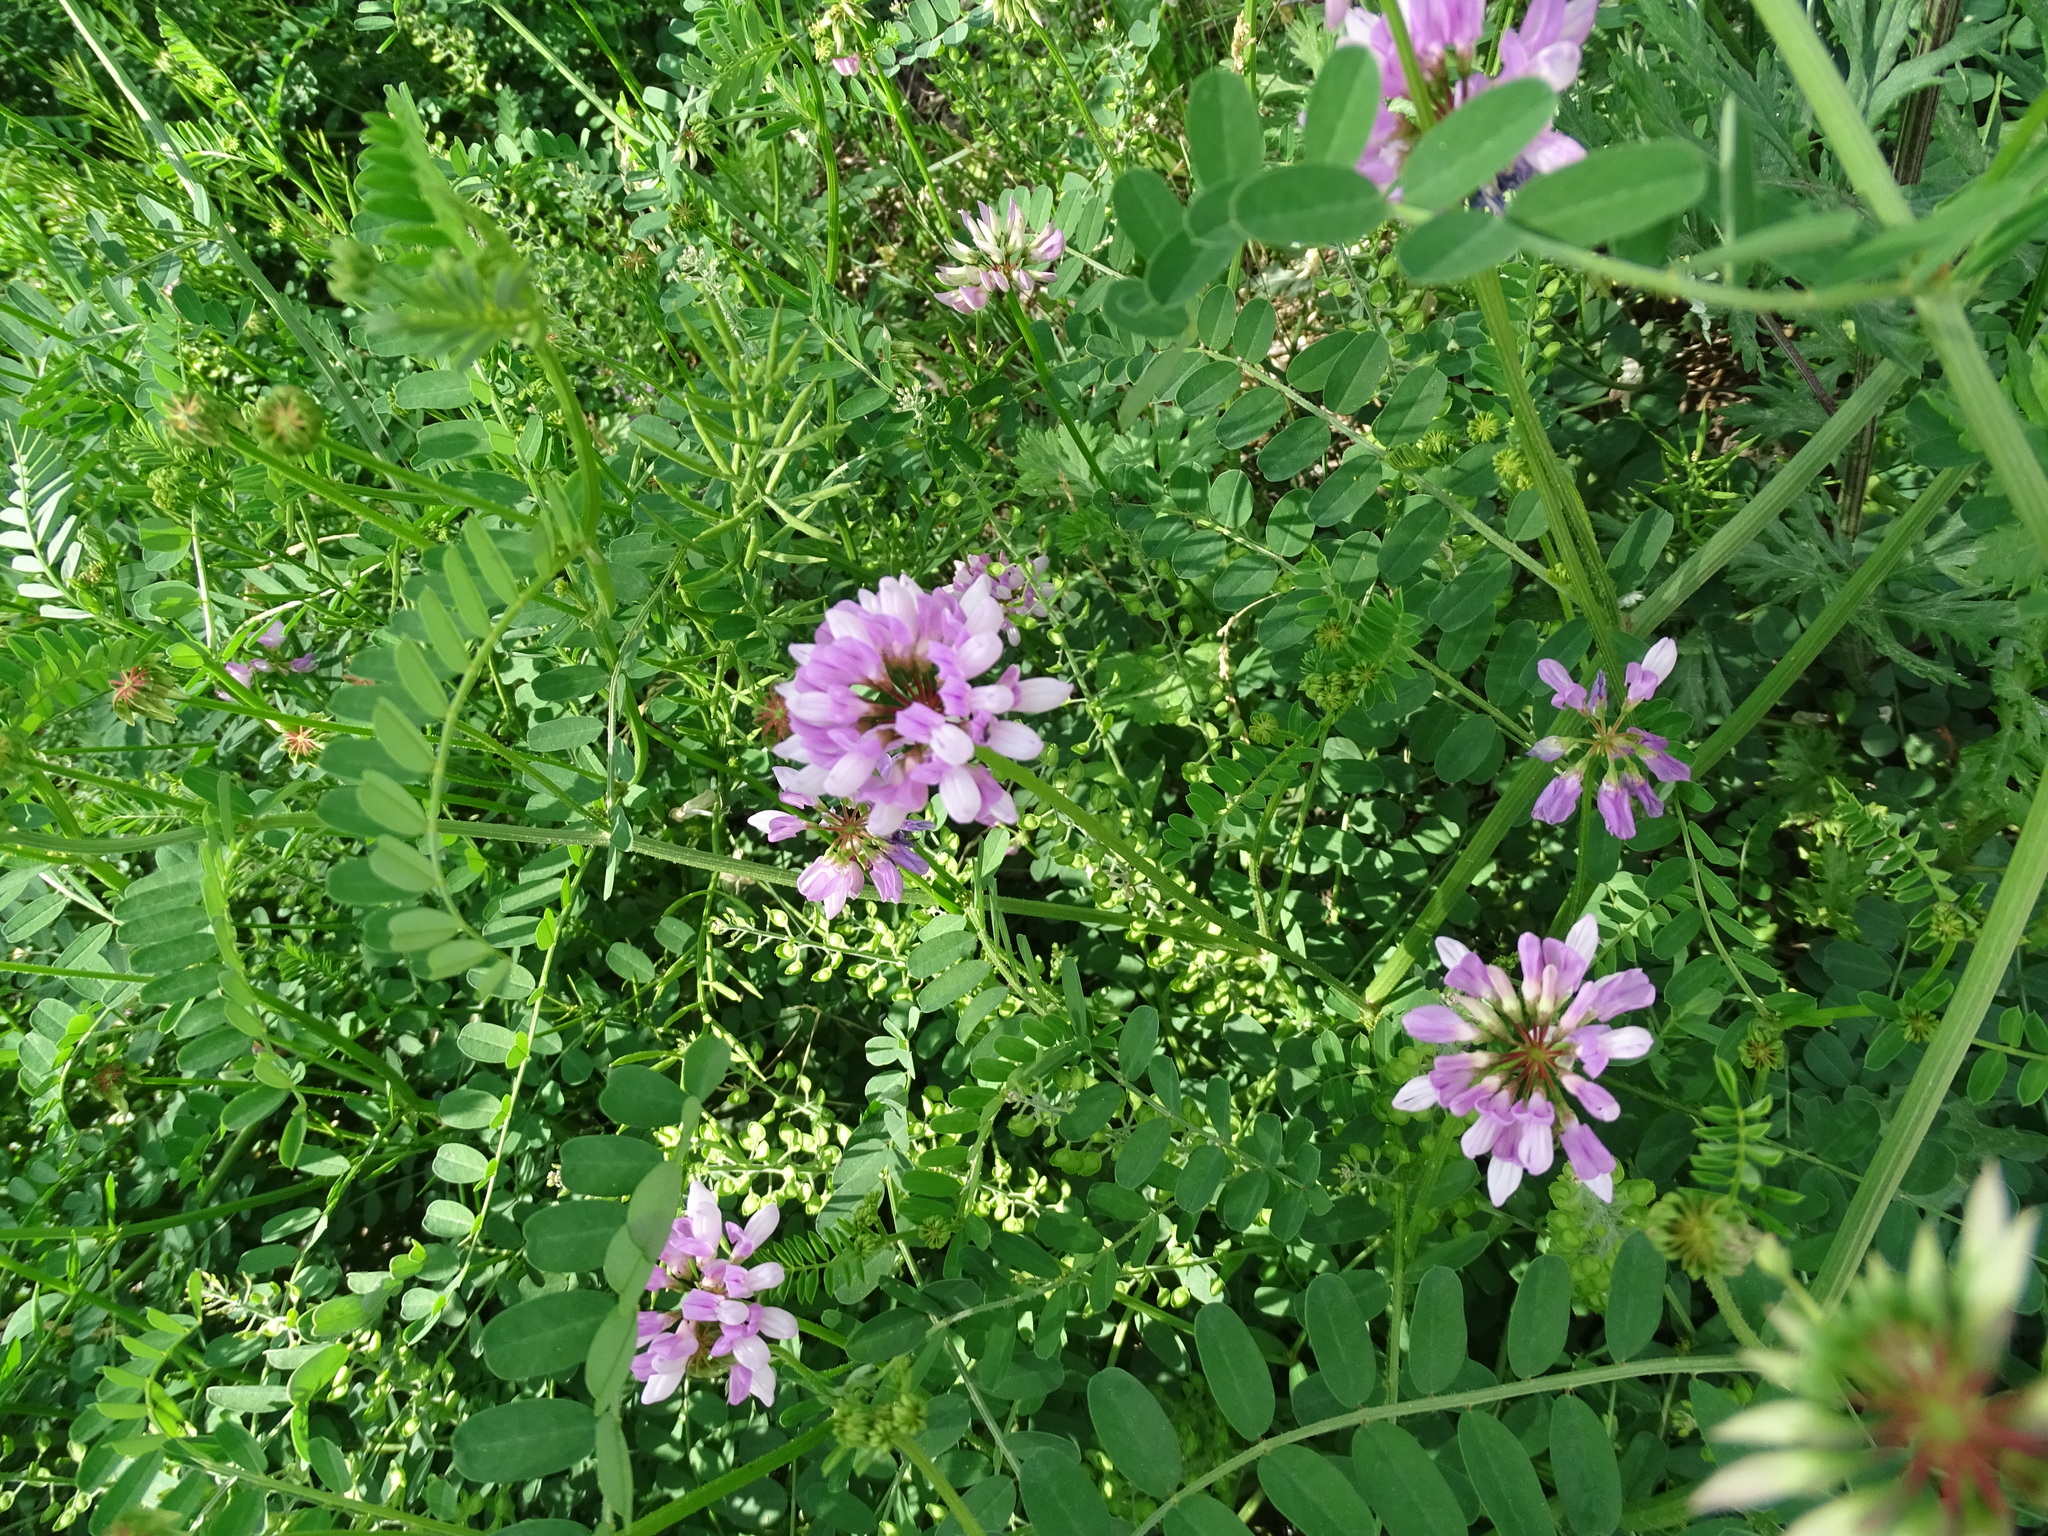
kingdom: Plantae
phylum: Tracheophyta
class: Magnoliopsida
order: Fabales
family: Fabaceae
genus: Coronilla
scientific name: Coronilla varia
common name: Crownvetch
